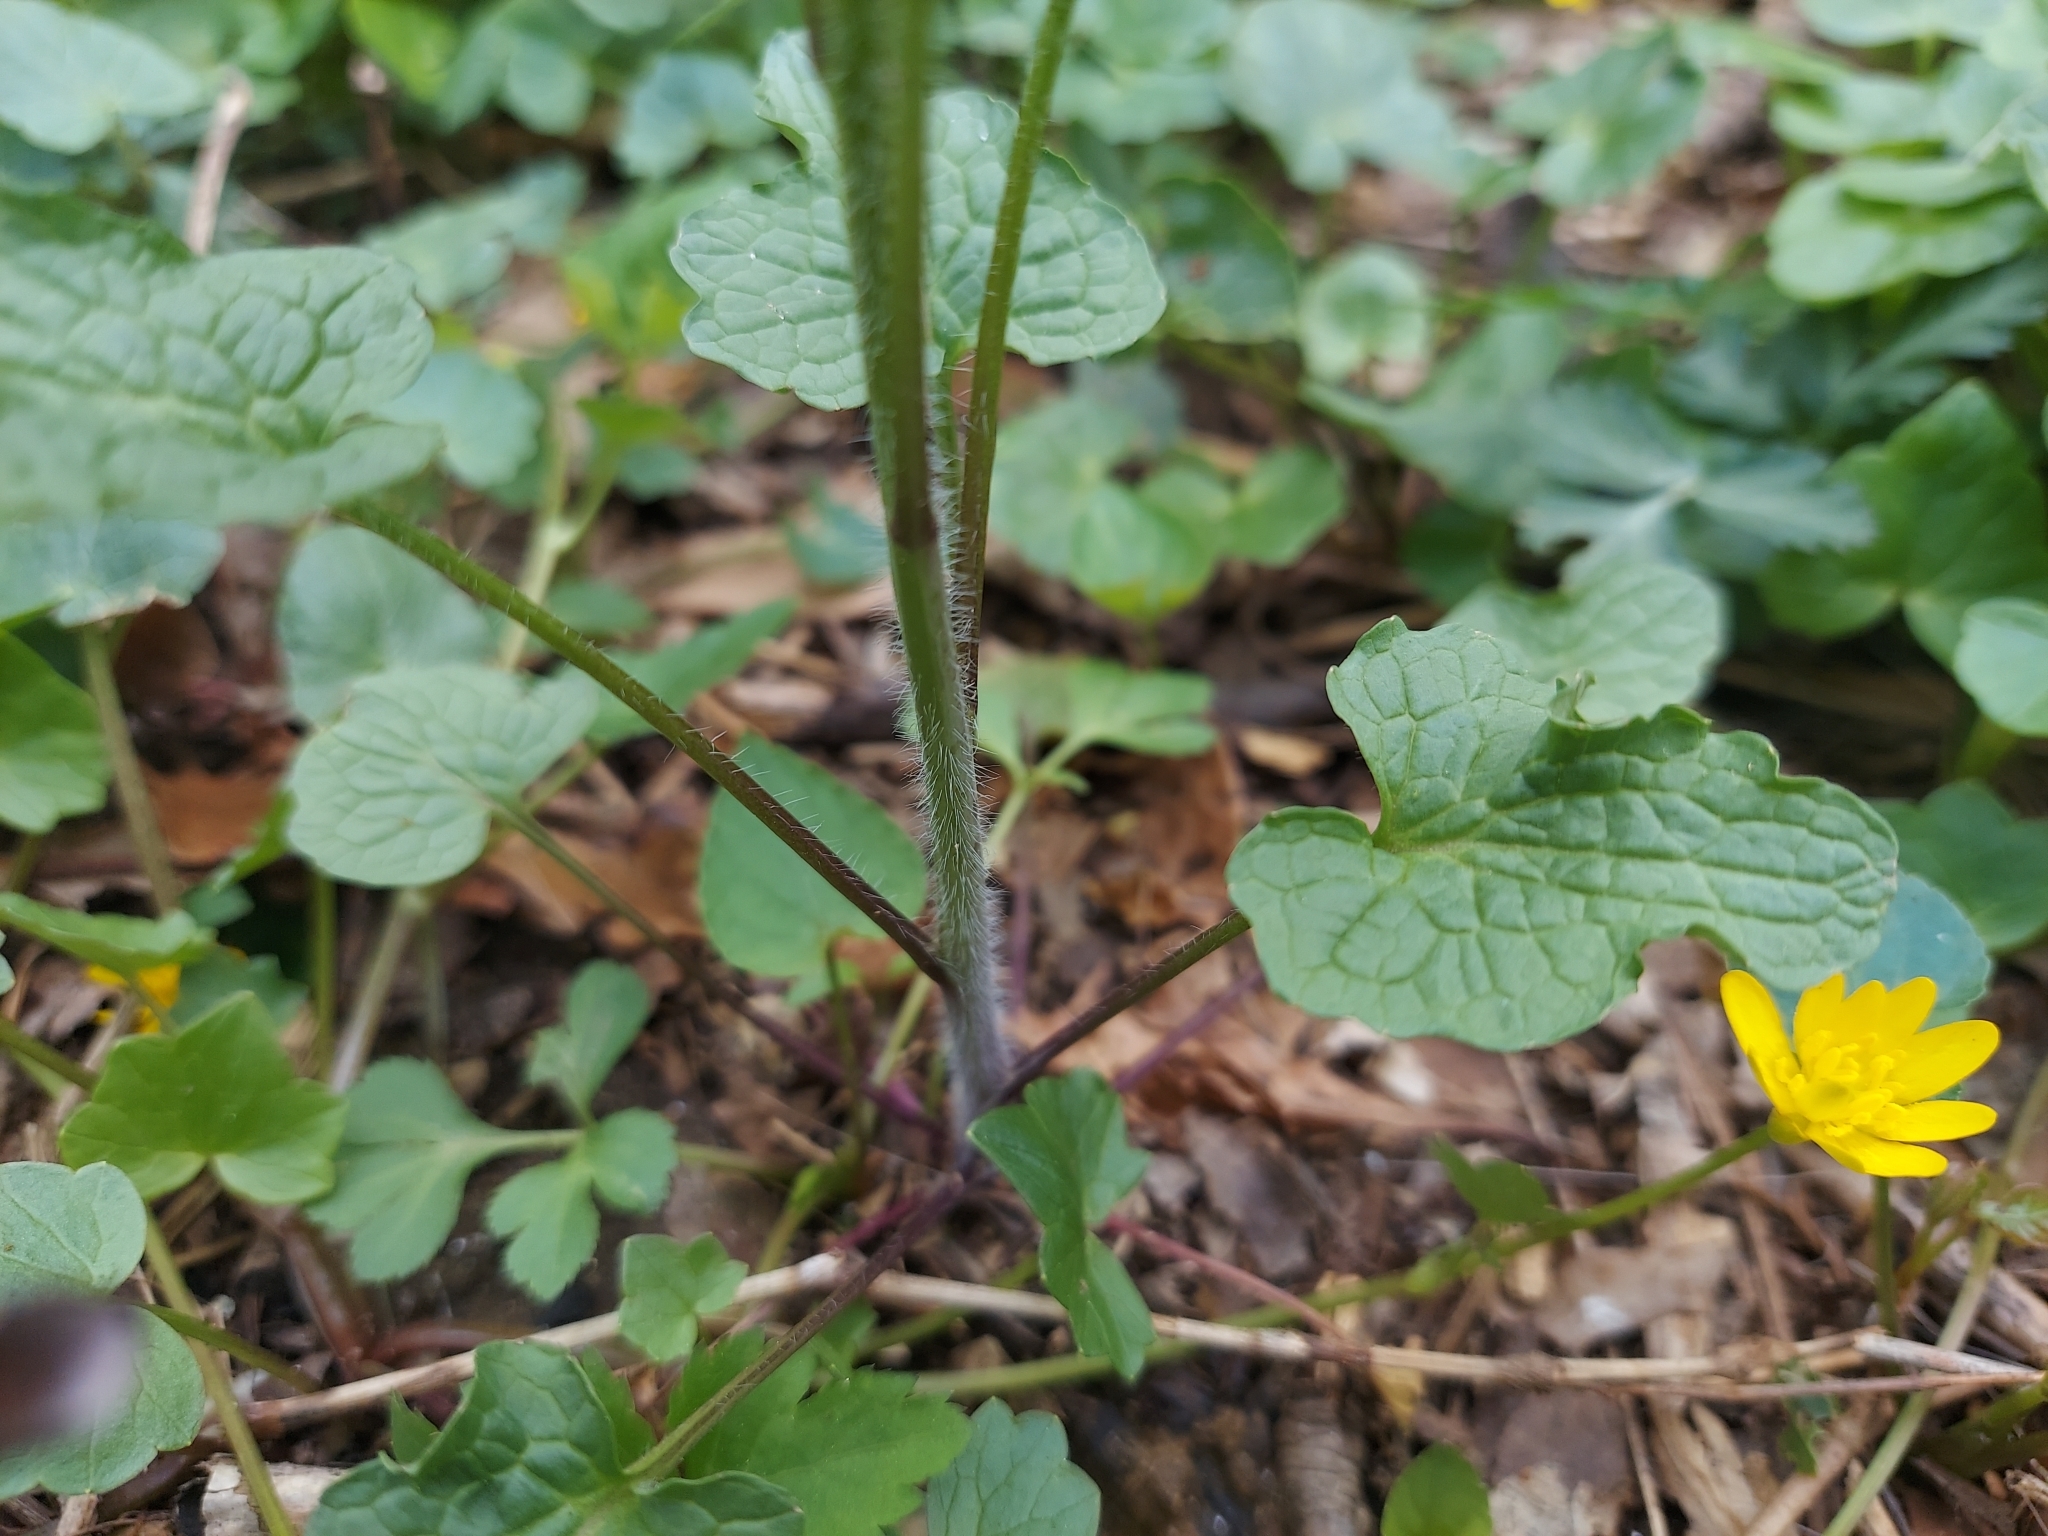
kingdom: Plantae
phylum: Tracheophyta
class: Magnoliopsida
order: Brassicales
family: Brassicaceae
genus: Alliaria
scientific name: Alliaria petiolata
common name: Garlic mustard
